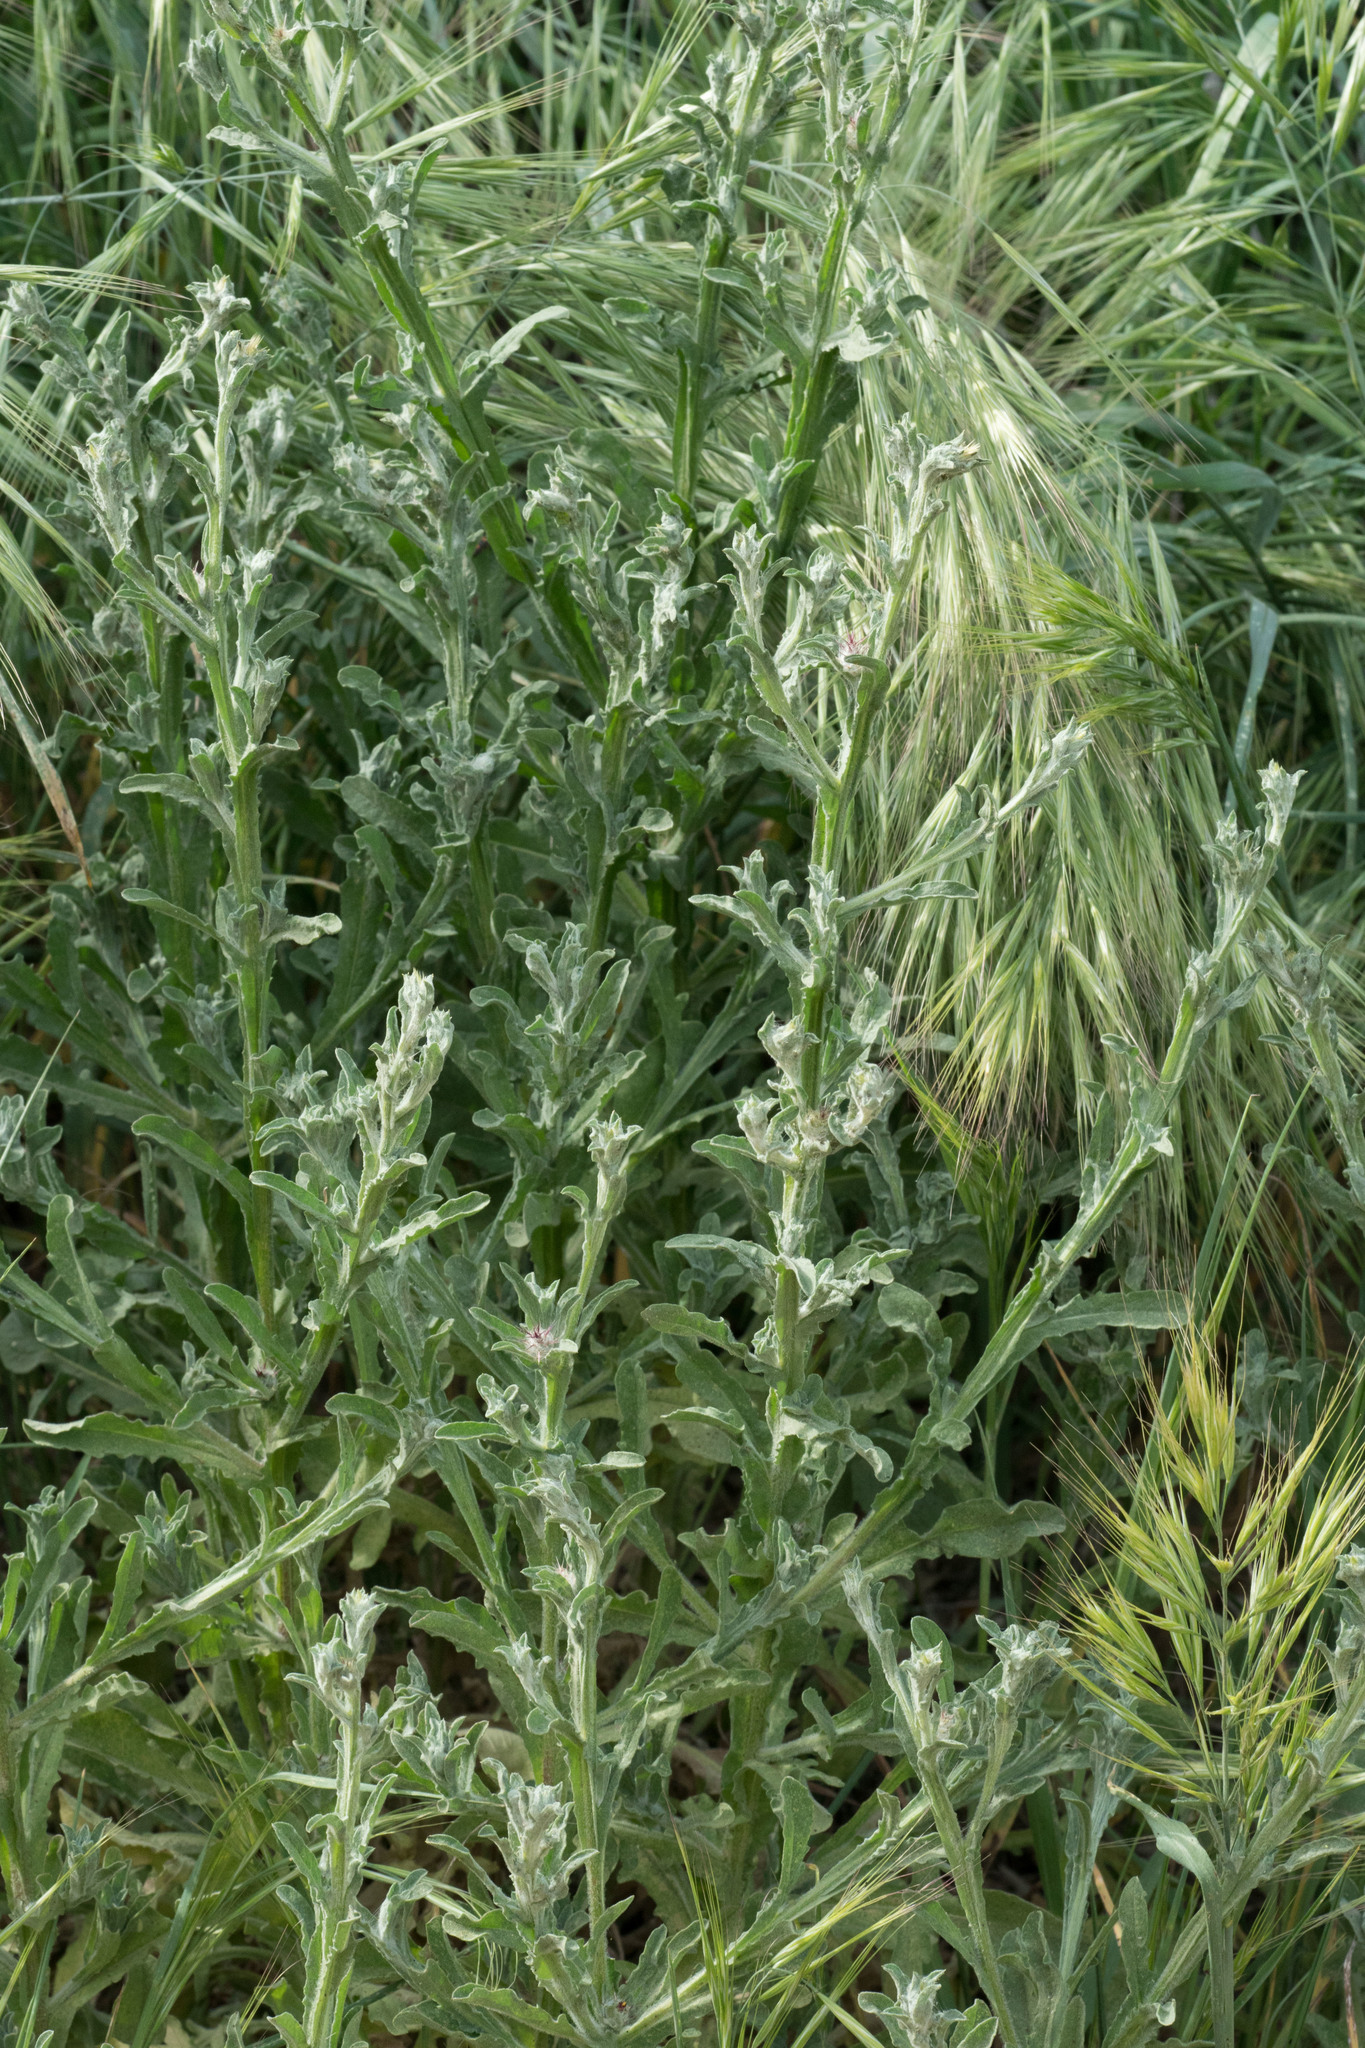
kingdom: Plantae
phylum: Tracheophyta
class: Magnoliopsida
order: Asterales
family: Asteraceae
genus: Centaurea
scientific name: Centaurea melitensis
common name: Maltese star-thistle
